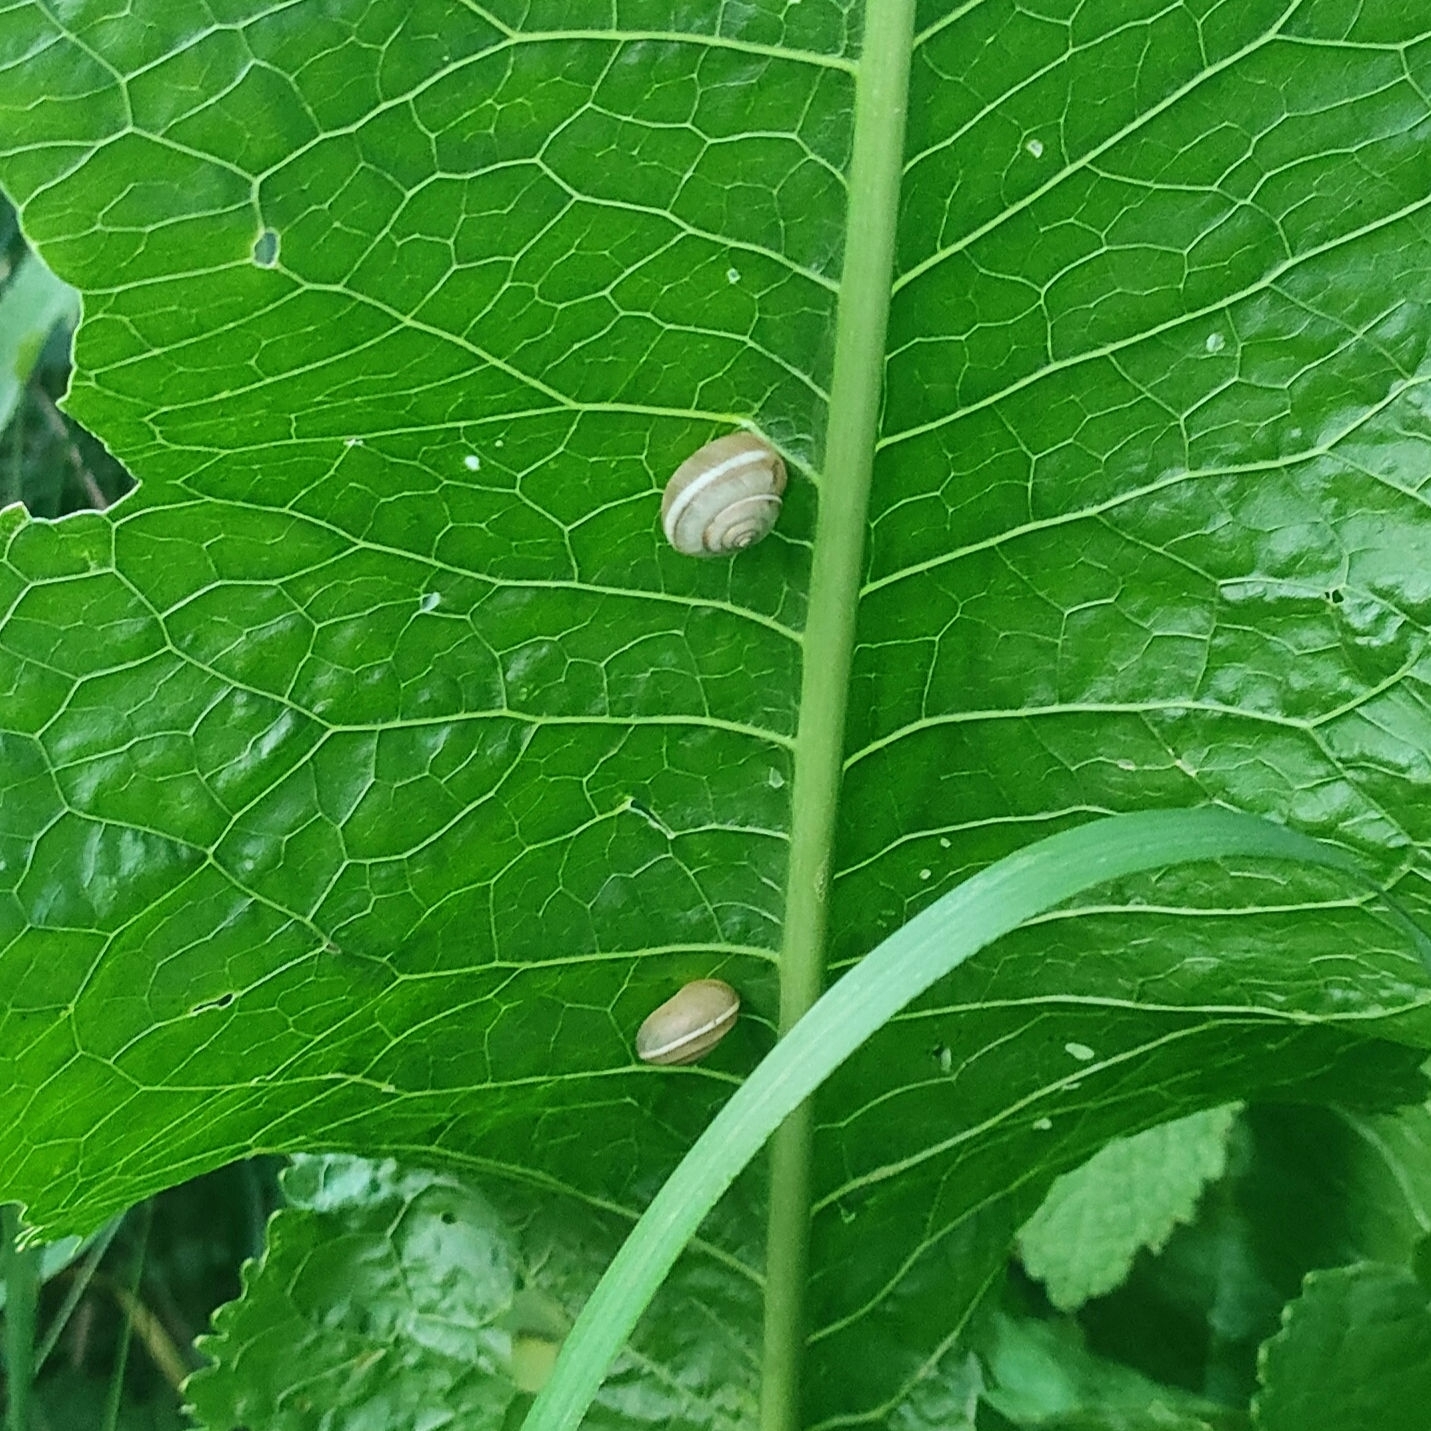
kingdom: Animalia
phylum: Mollusca
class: Gastropoda
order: Stylommatophora
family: Hygromiidae
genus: Harmozica
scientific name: Harmozica ravergiensis
